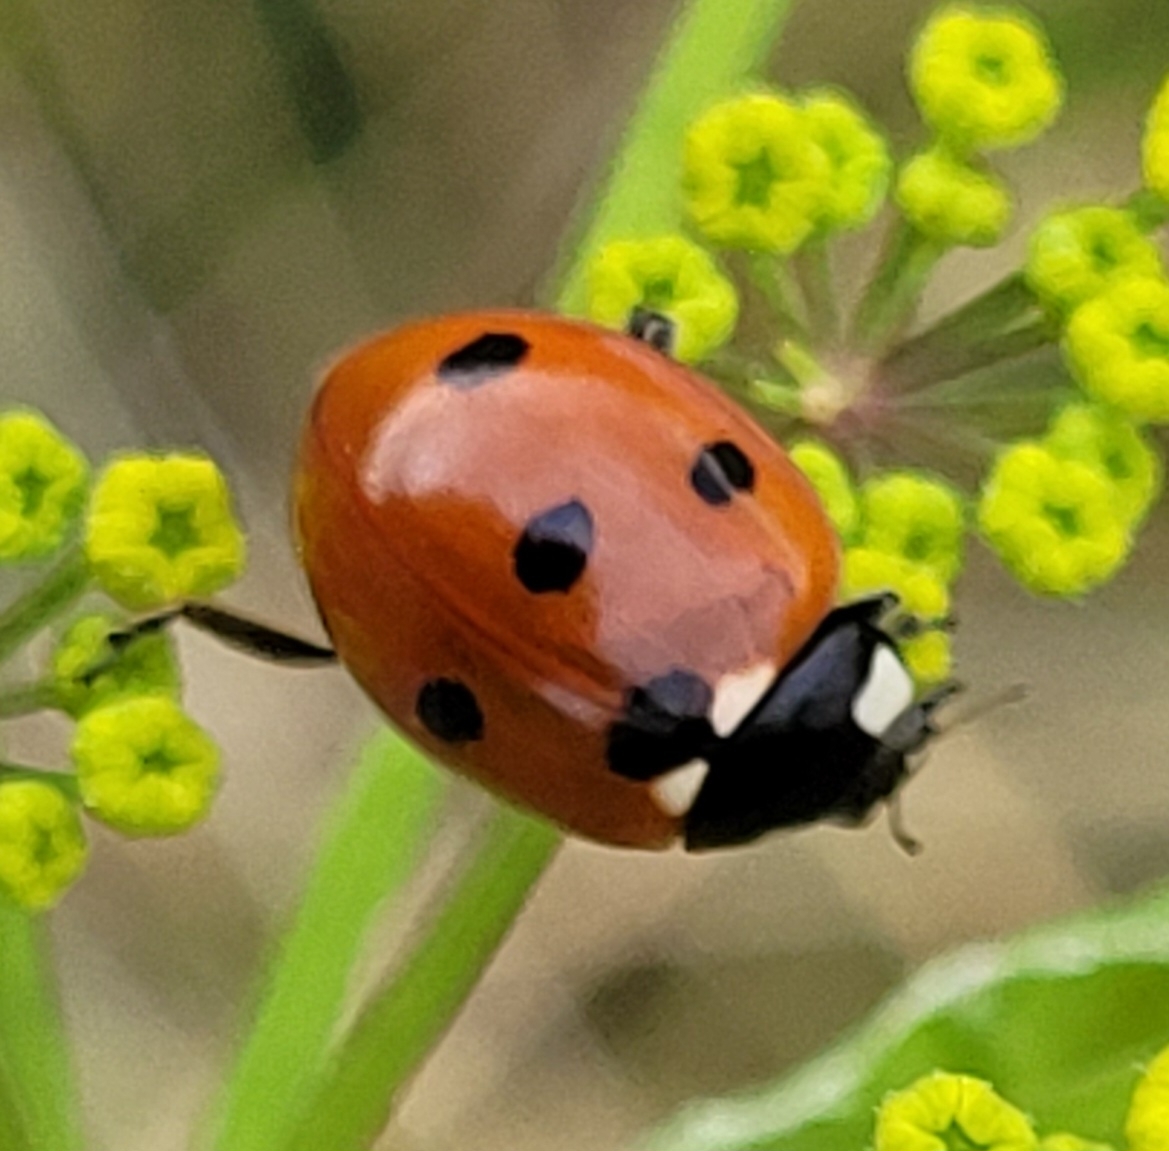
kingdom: Animalia
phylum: Arthropoda
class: Insecta
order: Coleoptera
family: Coccinellidae
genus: Coccinella
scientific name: Coccinella septempunctata
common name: Sevenspotted lady beetle
